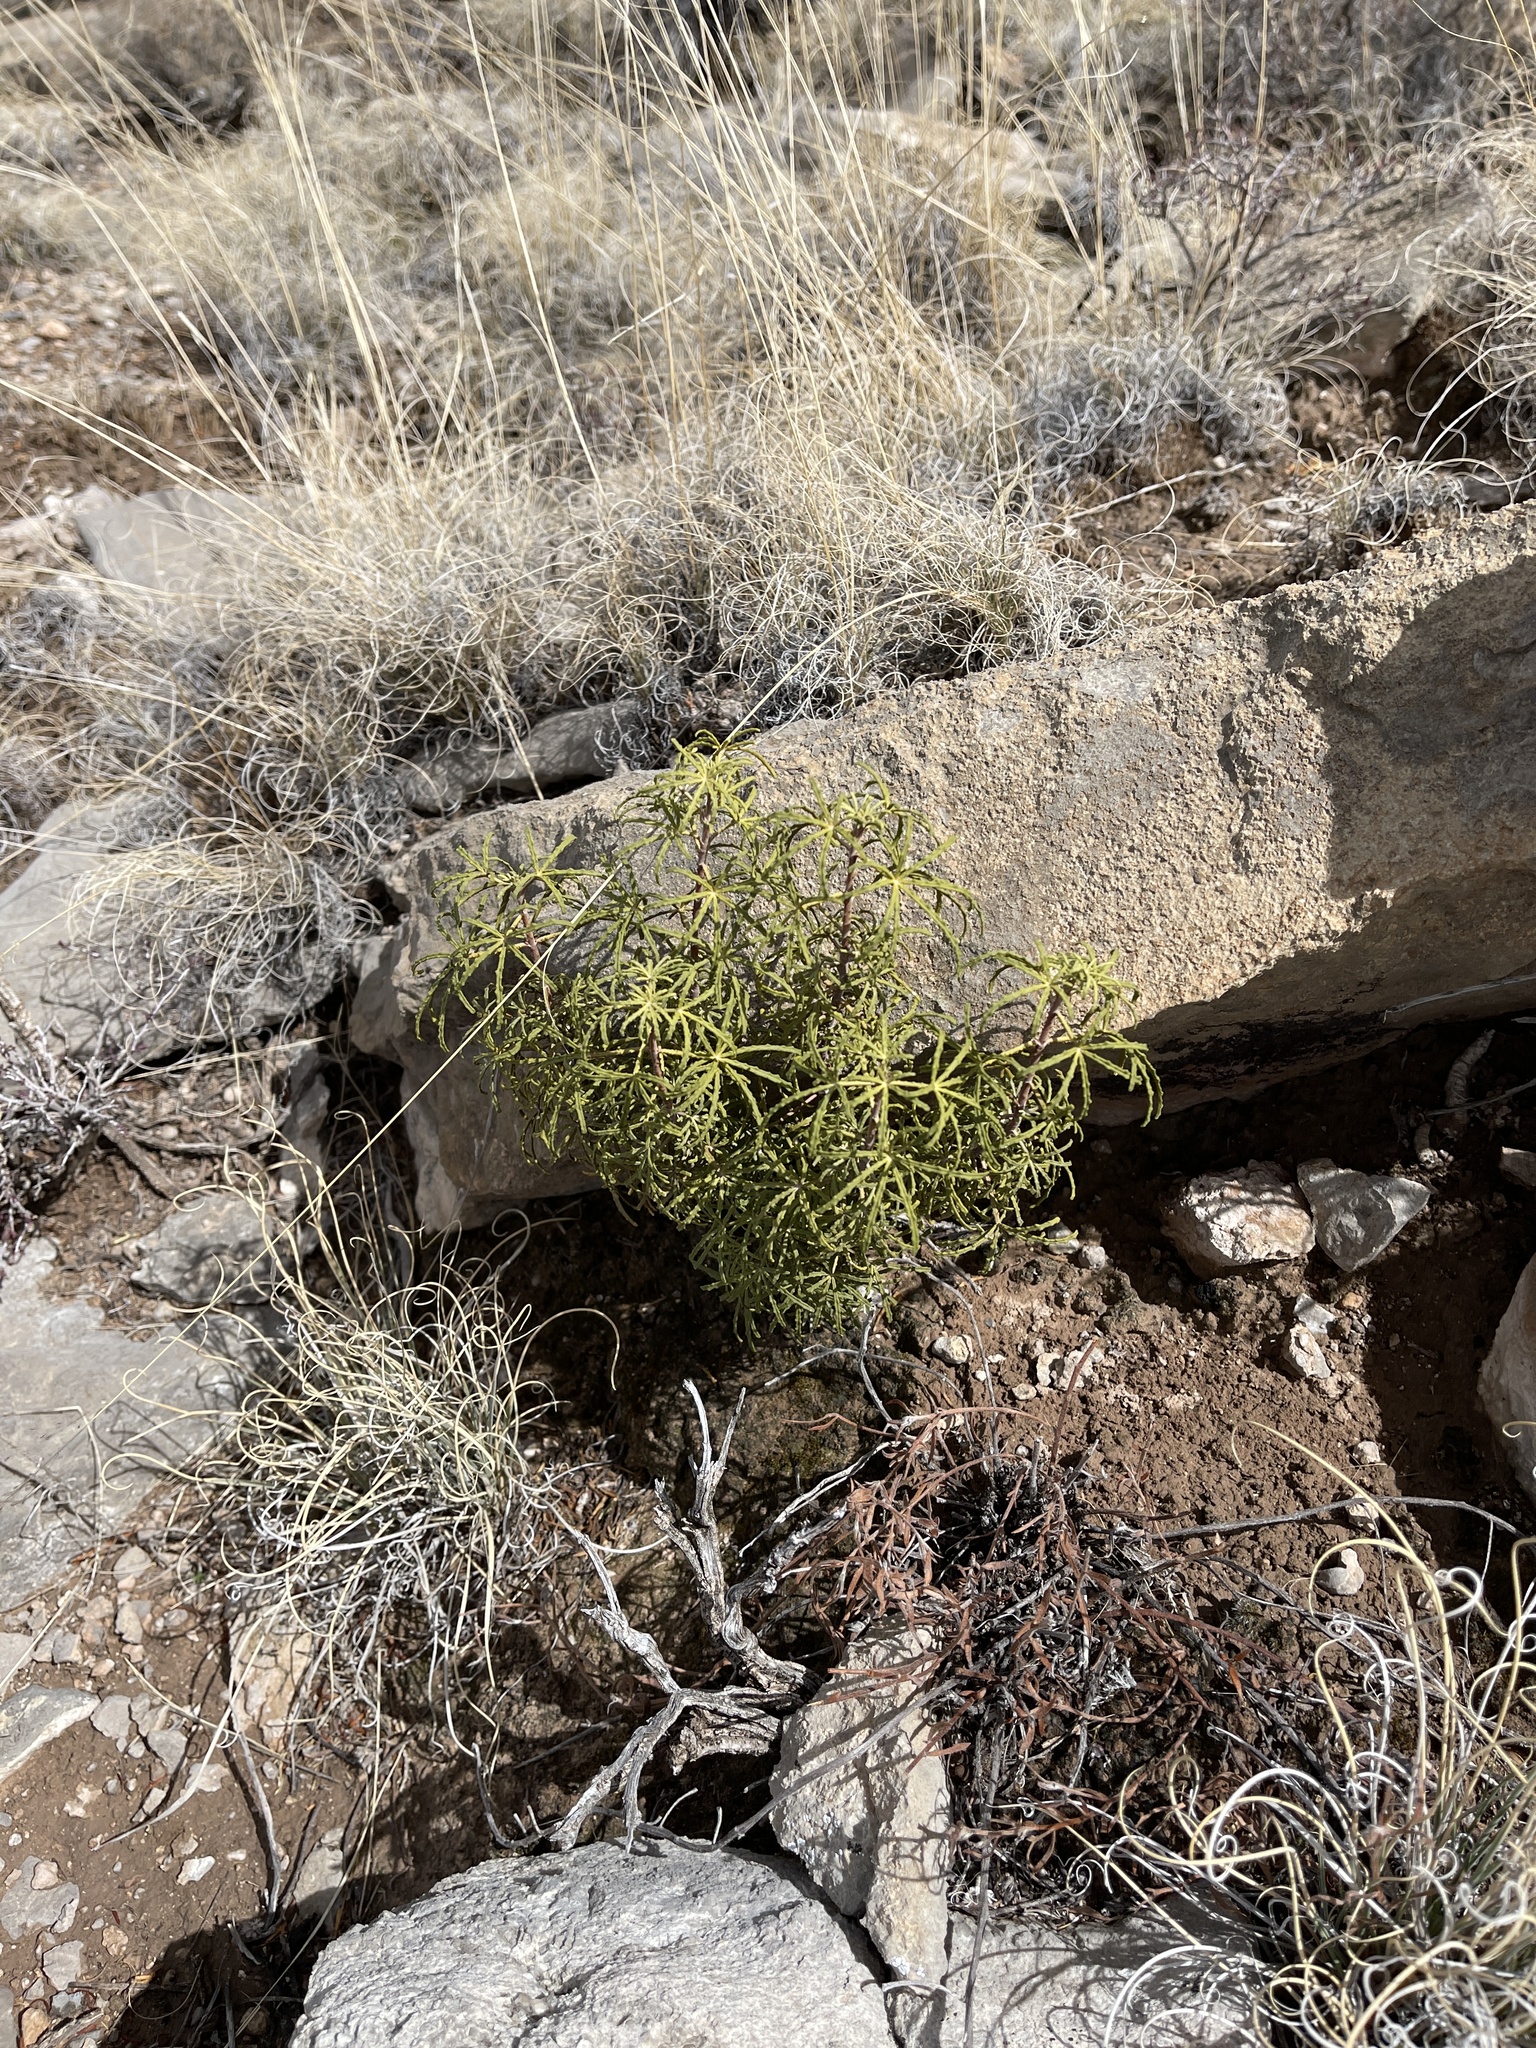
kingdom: Plantae
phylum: Tracheophyta
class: Magnoliopsida
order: Sapindales
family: Rutaceae
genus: Choisya
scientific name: Choisya dumosa
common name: Mexican-orange
